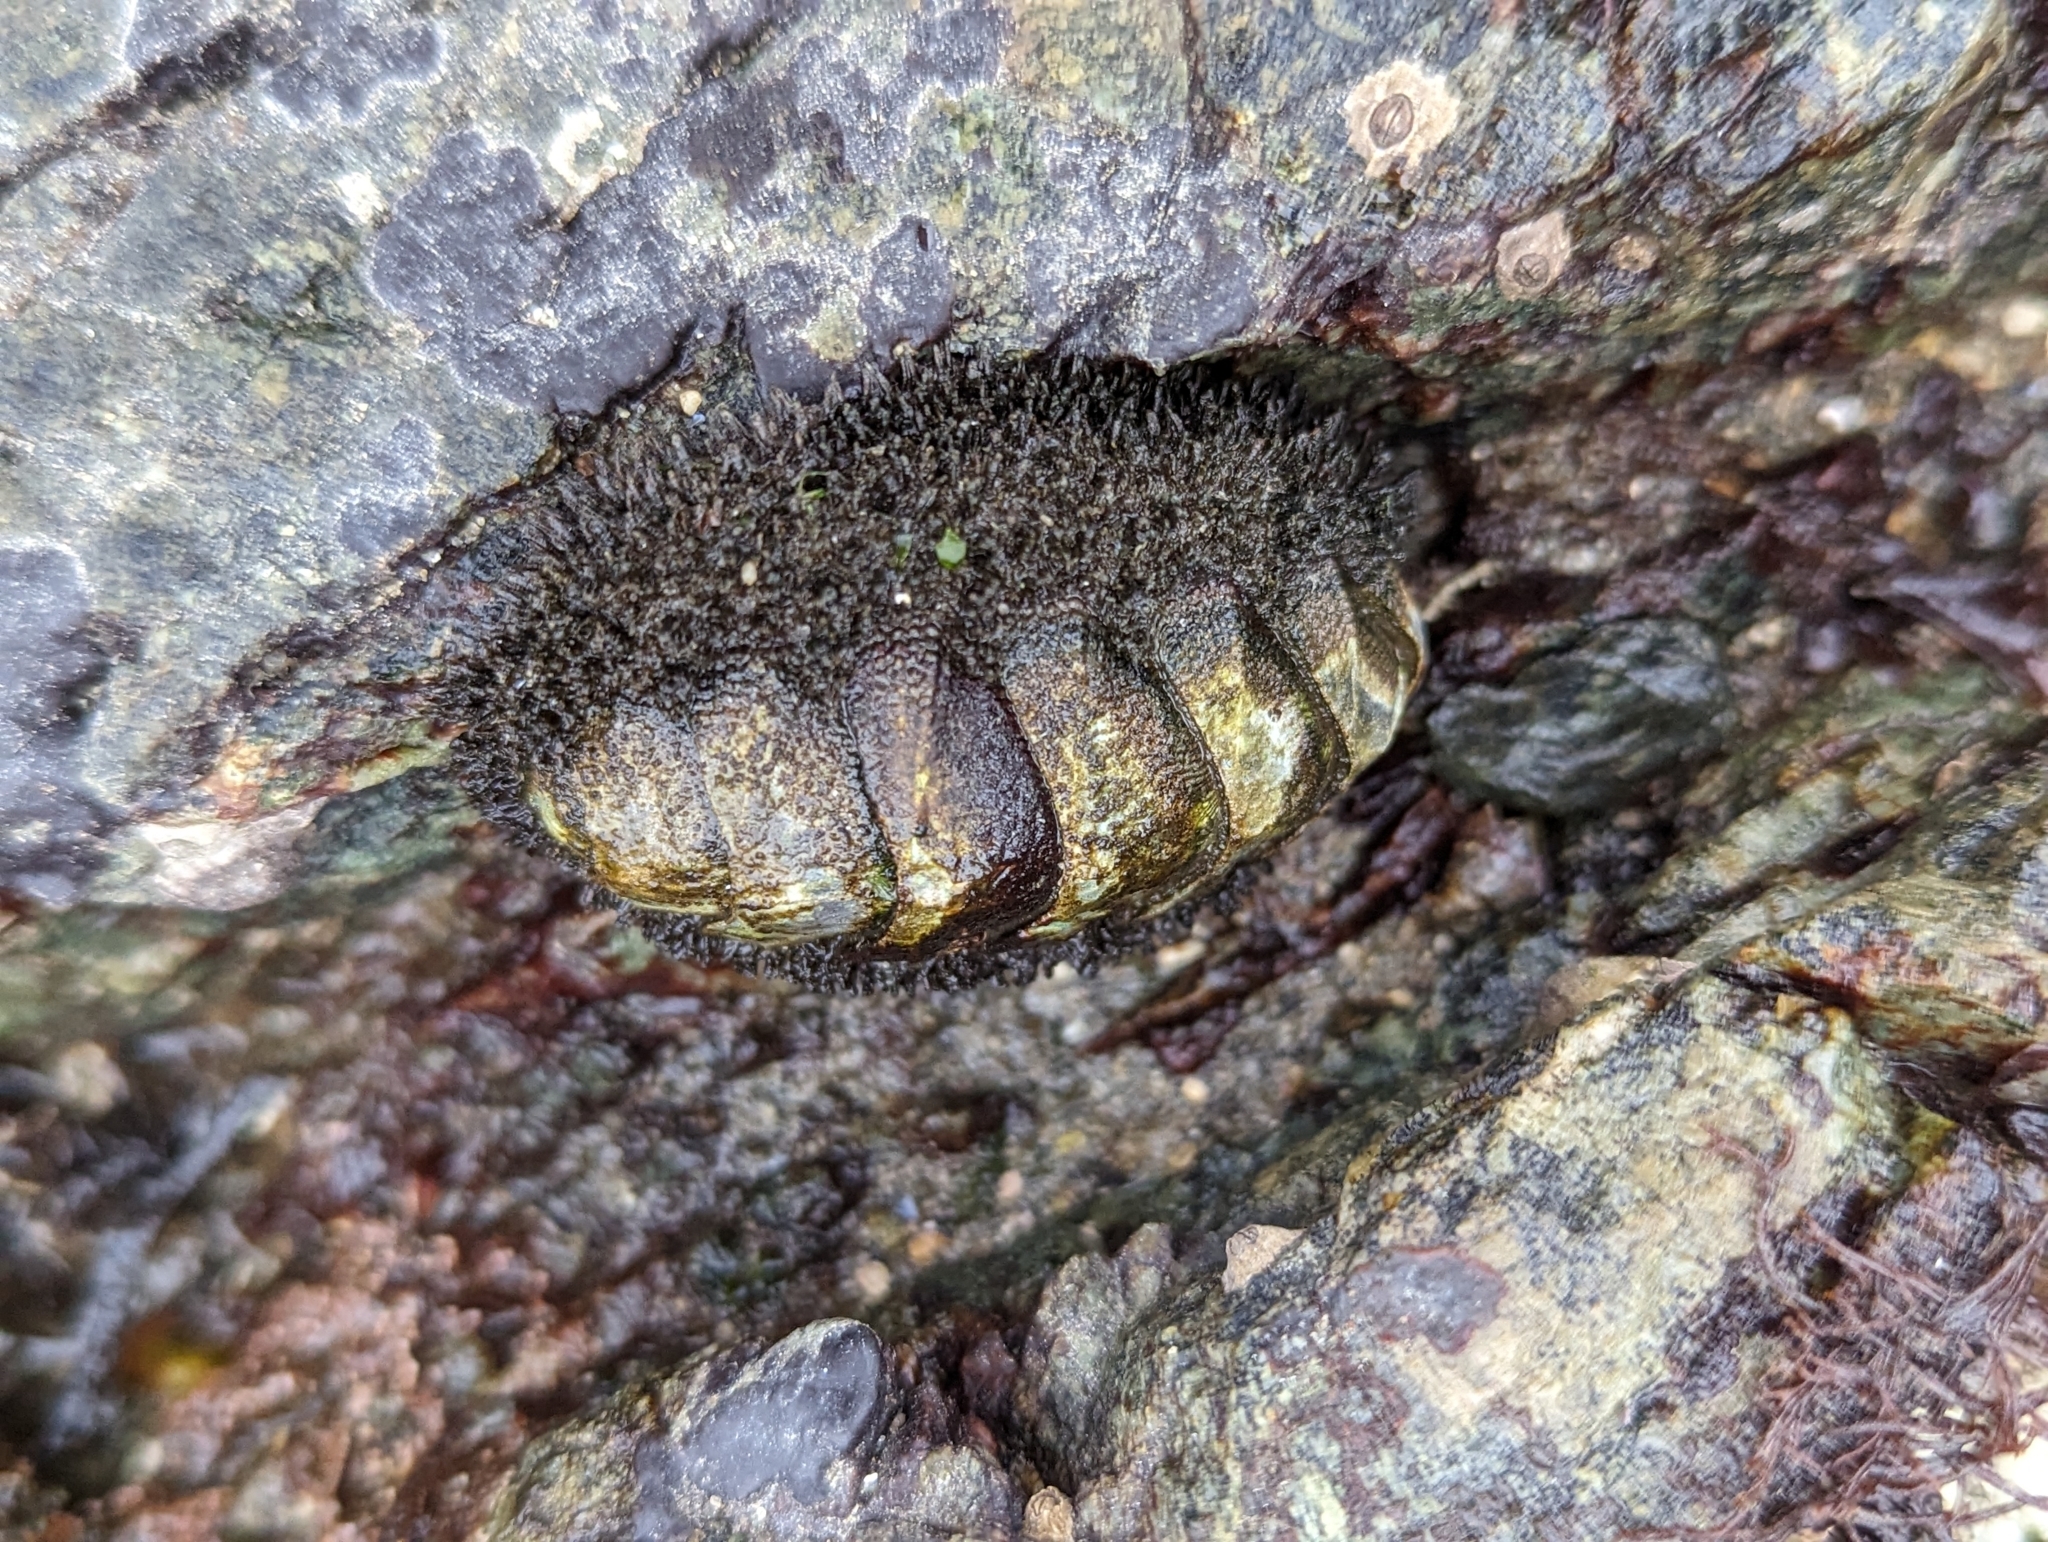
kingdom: Animalia
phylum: Mollusca
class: Polyplacophora
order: Chitonida
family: Mopaliidae
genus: Mopalia
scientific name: Mopalia muscosa
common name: Mossy chiton
